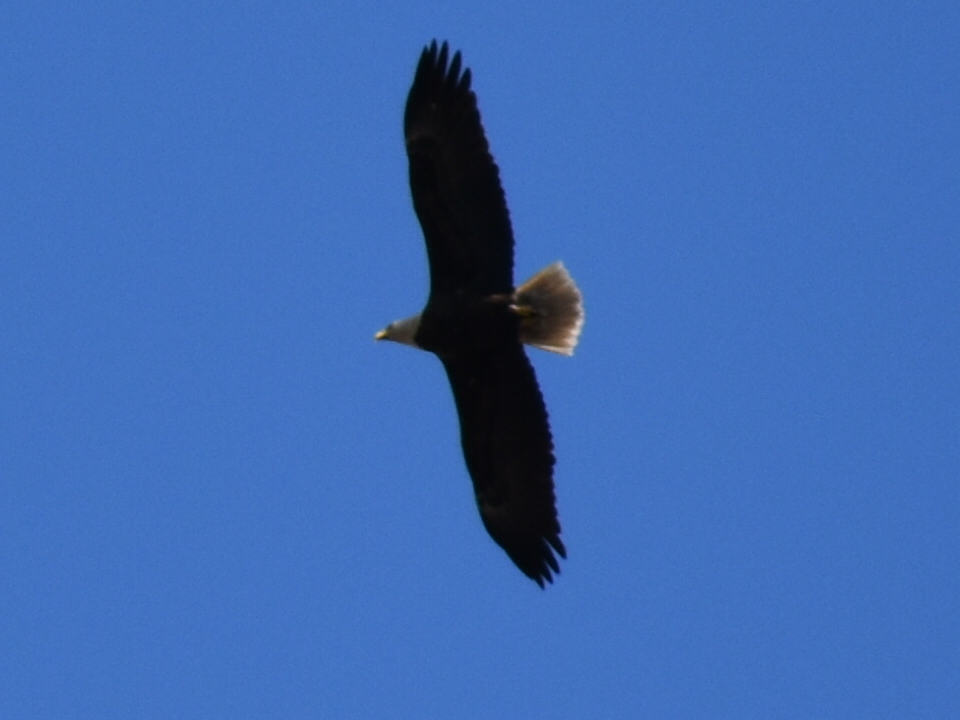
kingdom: Animalia
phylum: Chordata
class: Aves
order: Accipitriformes
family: Accipitridae
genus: Haliaeetus
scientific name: Haliaeetus leucocephalus
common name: Bald eagle
